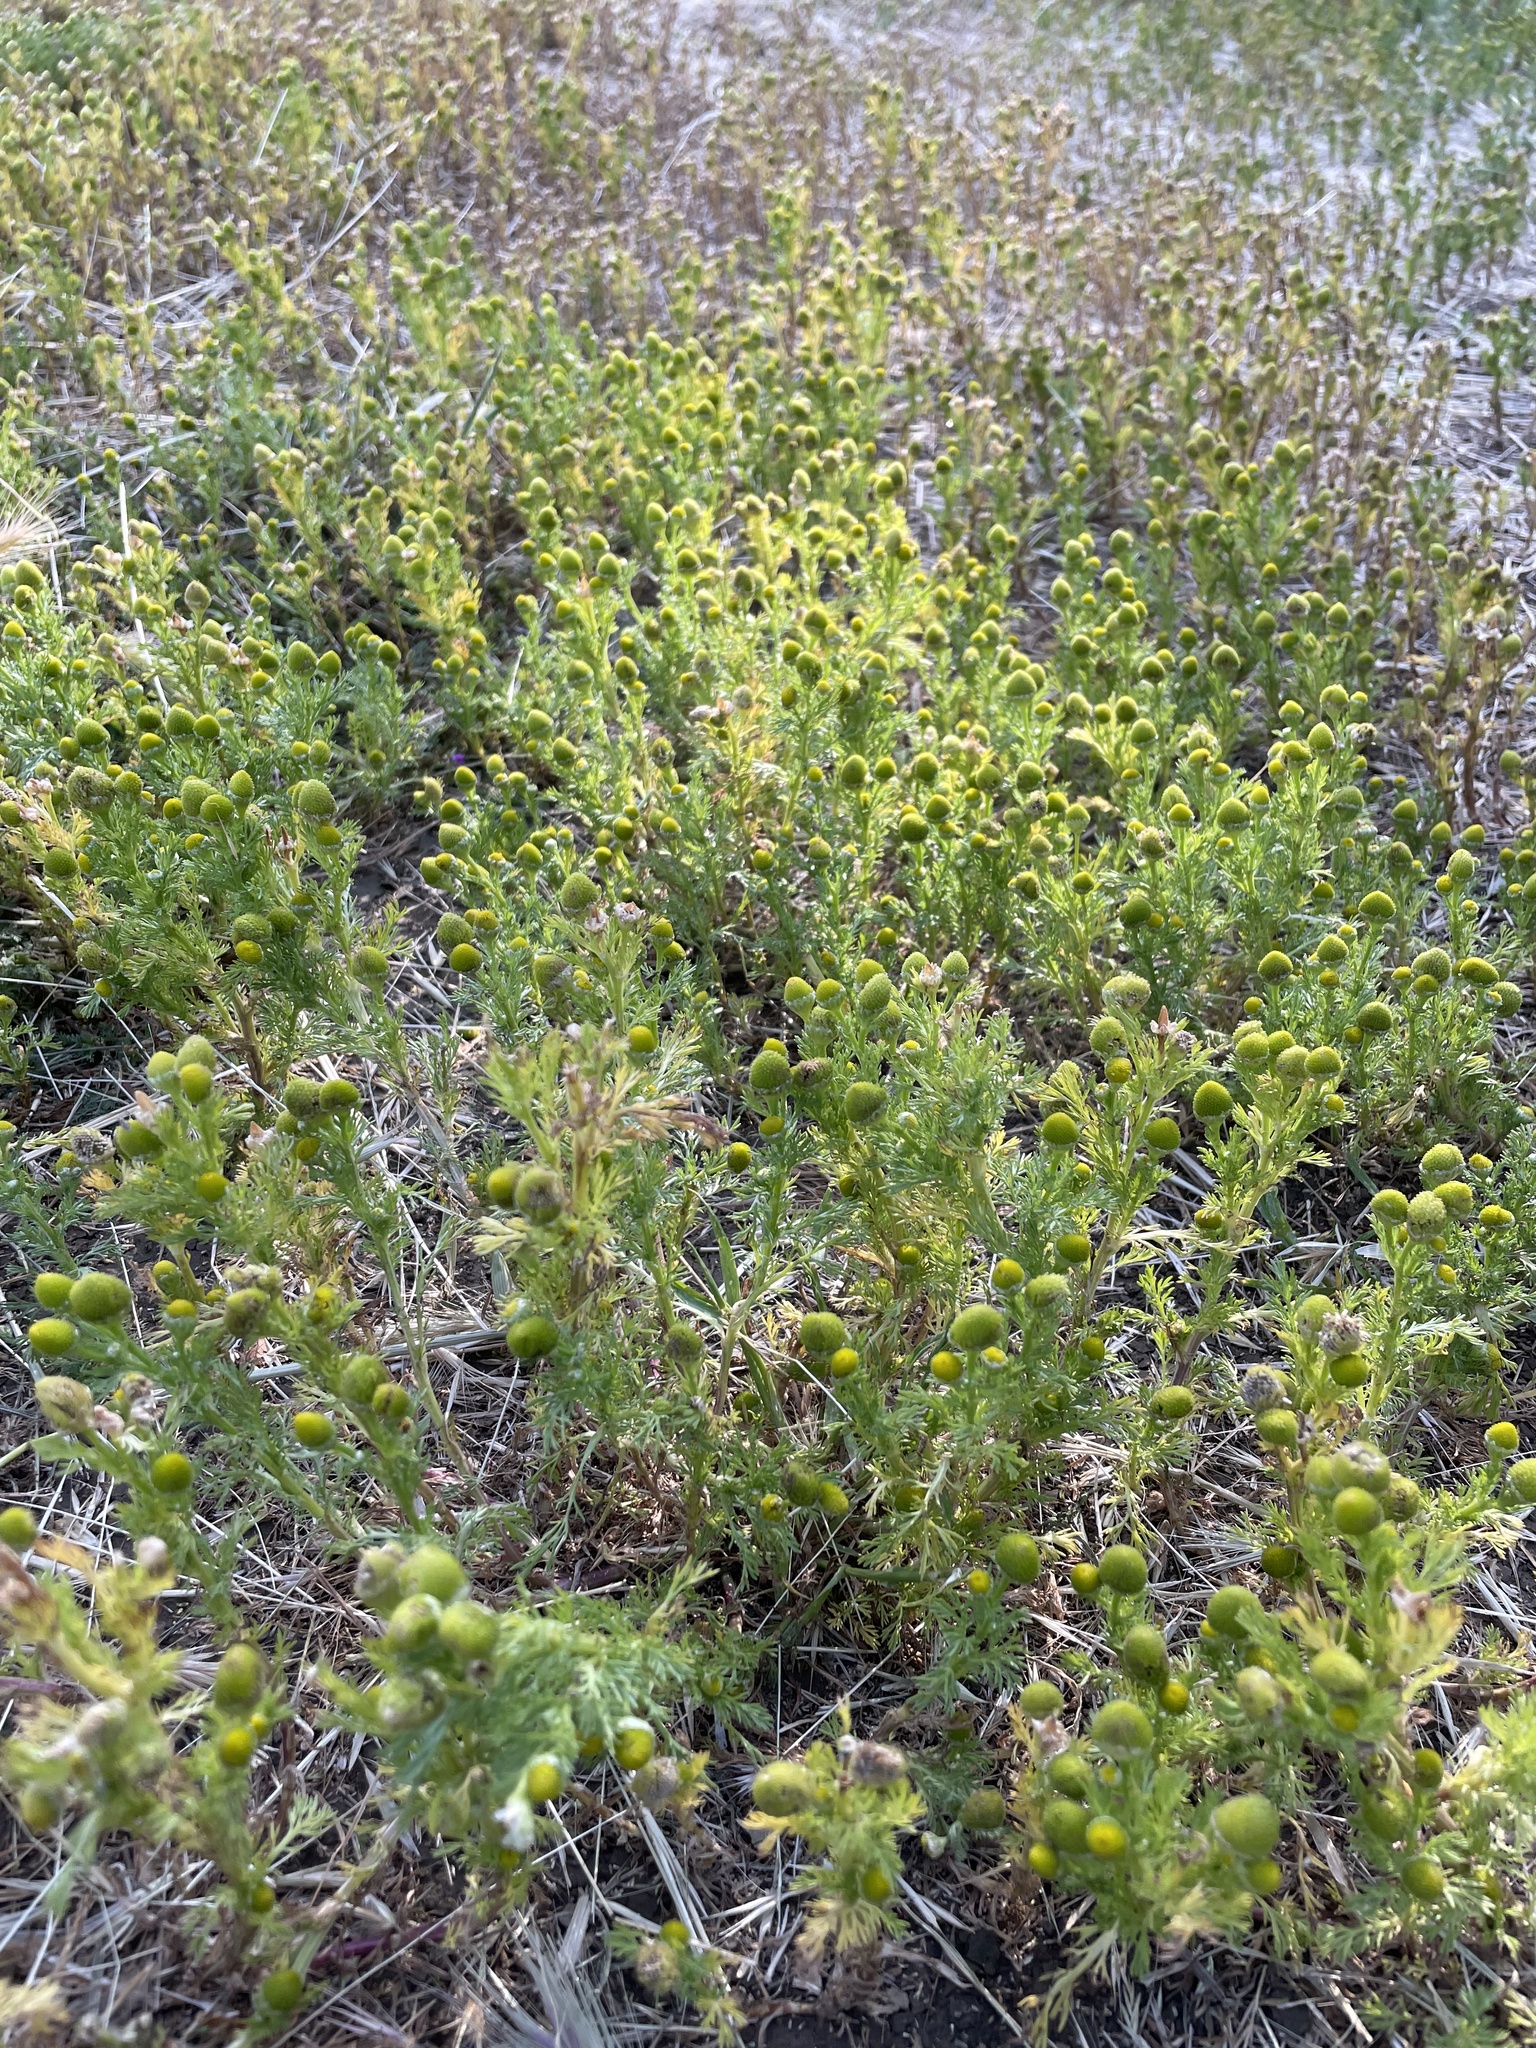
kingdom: Plantae
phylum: Tracheophyta
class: Magnoliopsida
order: Asterales
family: Asteraceae
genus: Matricaria
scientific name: Matricaria discoidea
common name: Disc mayweed
